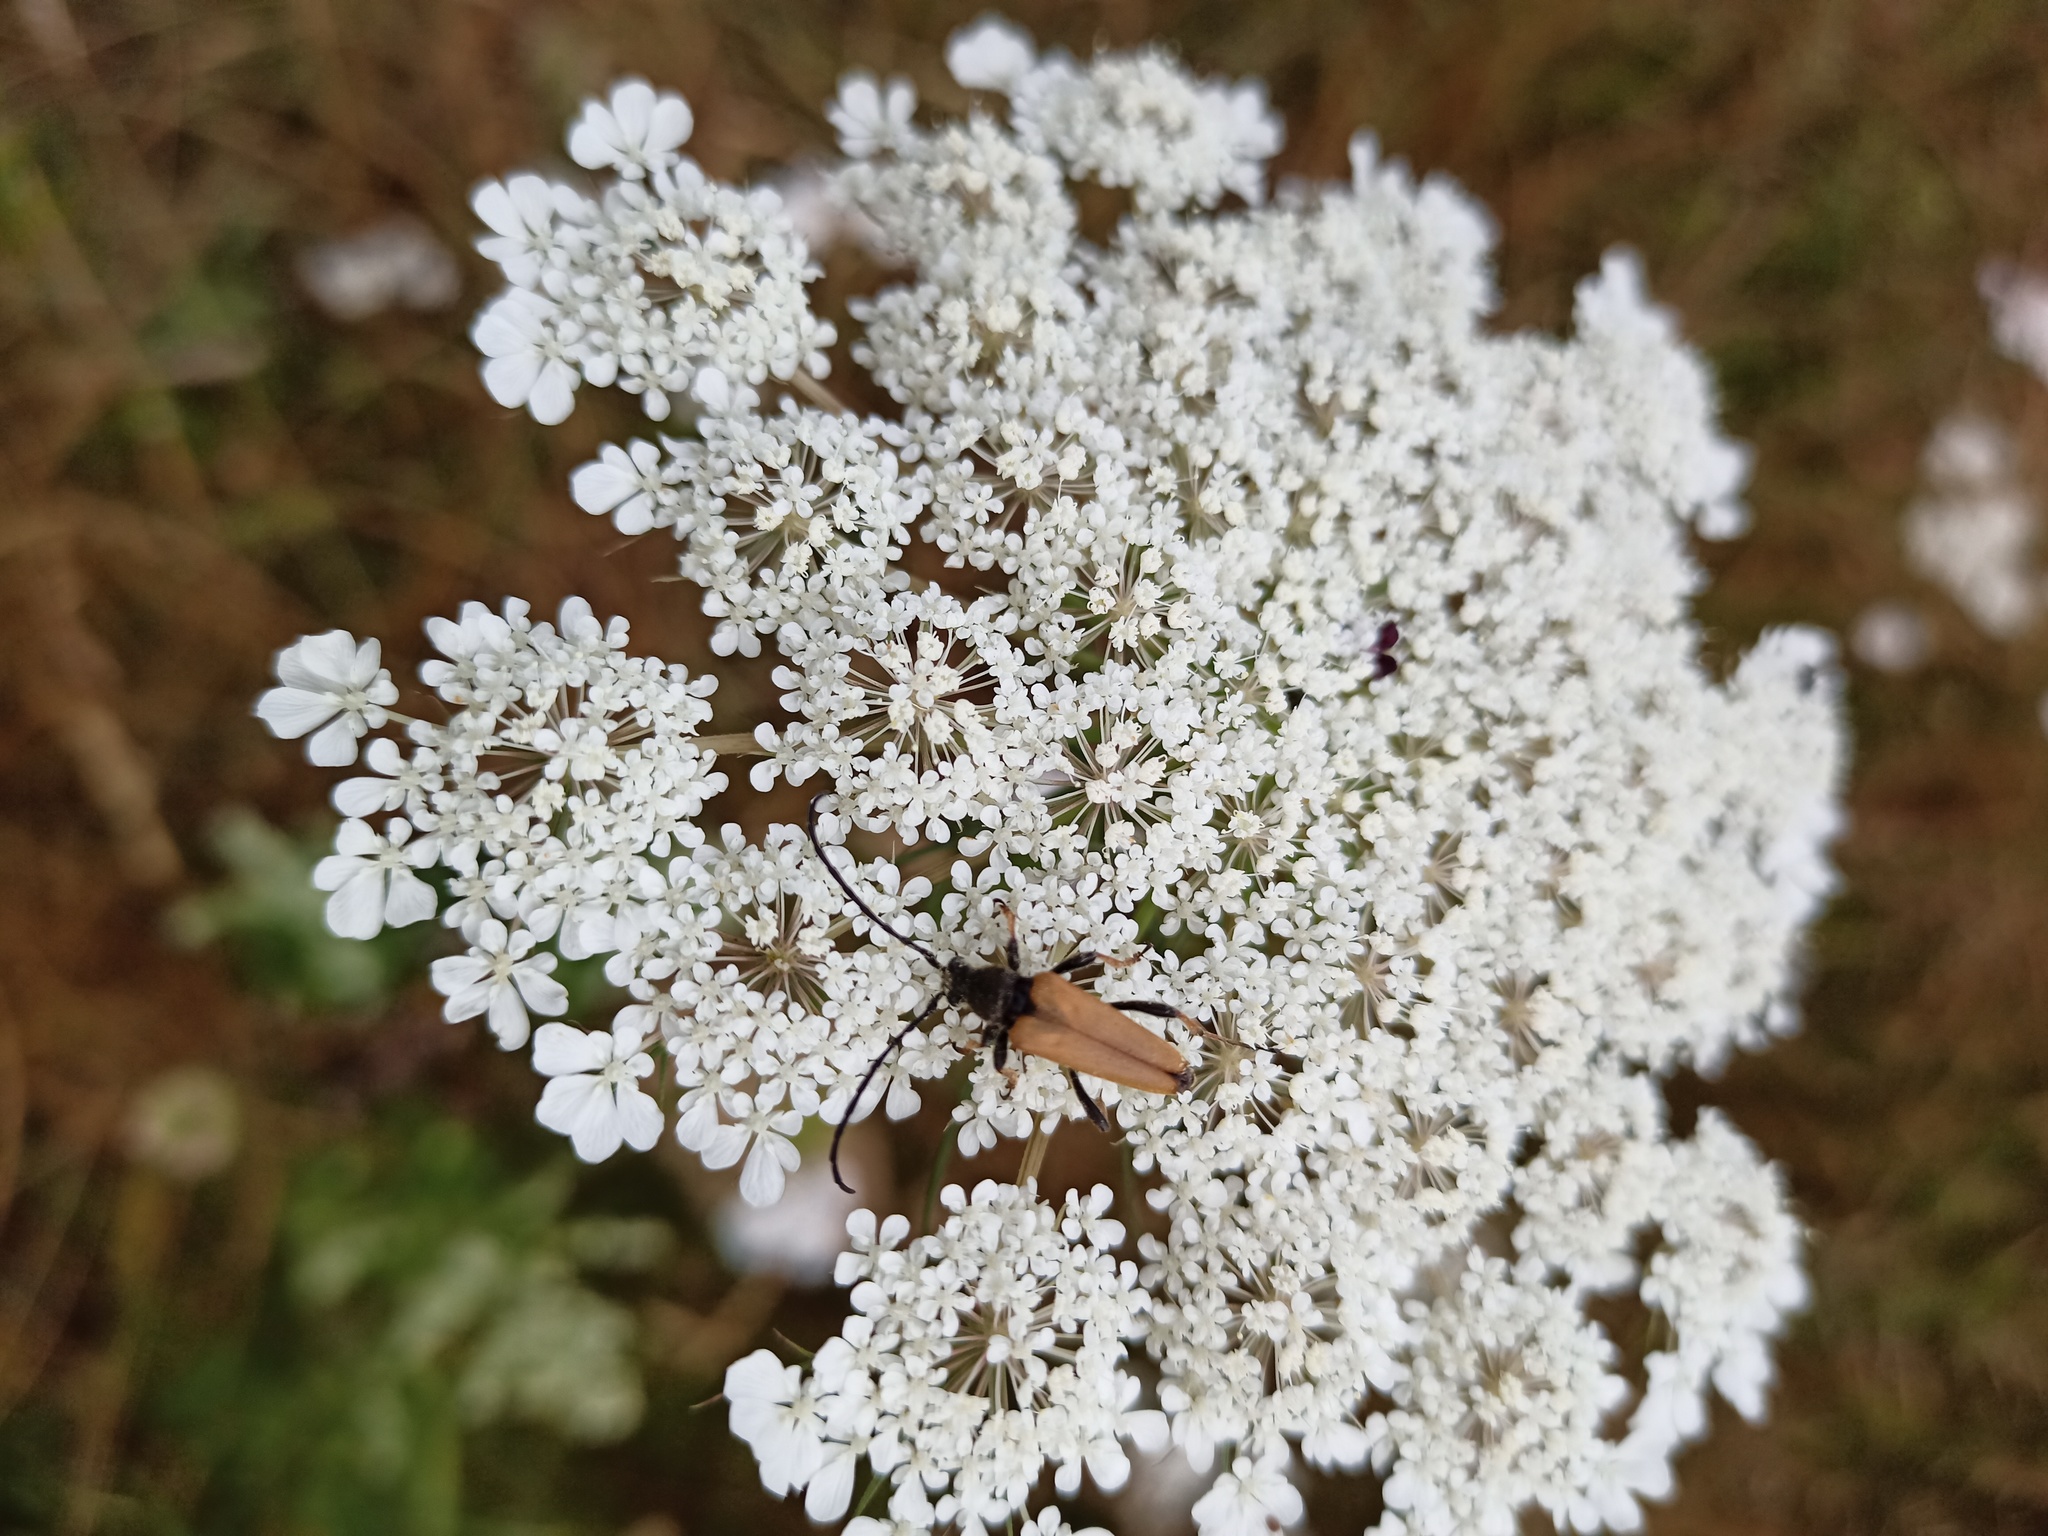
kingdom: Animalia
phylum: Arthropoda
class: Insecta
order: Coleoptera
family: Cerambycidae
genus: Stictoleptura
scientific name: Stictoleptura rubra
